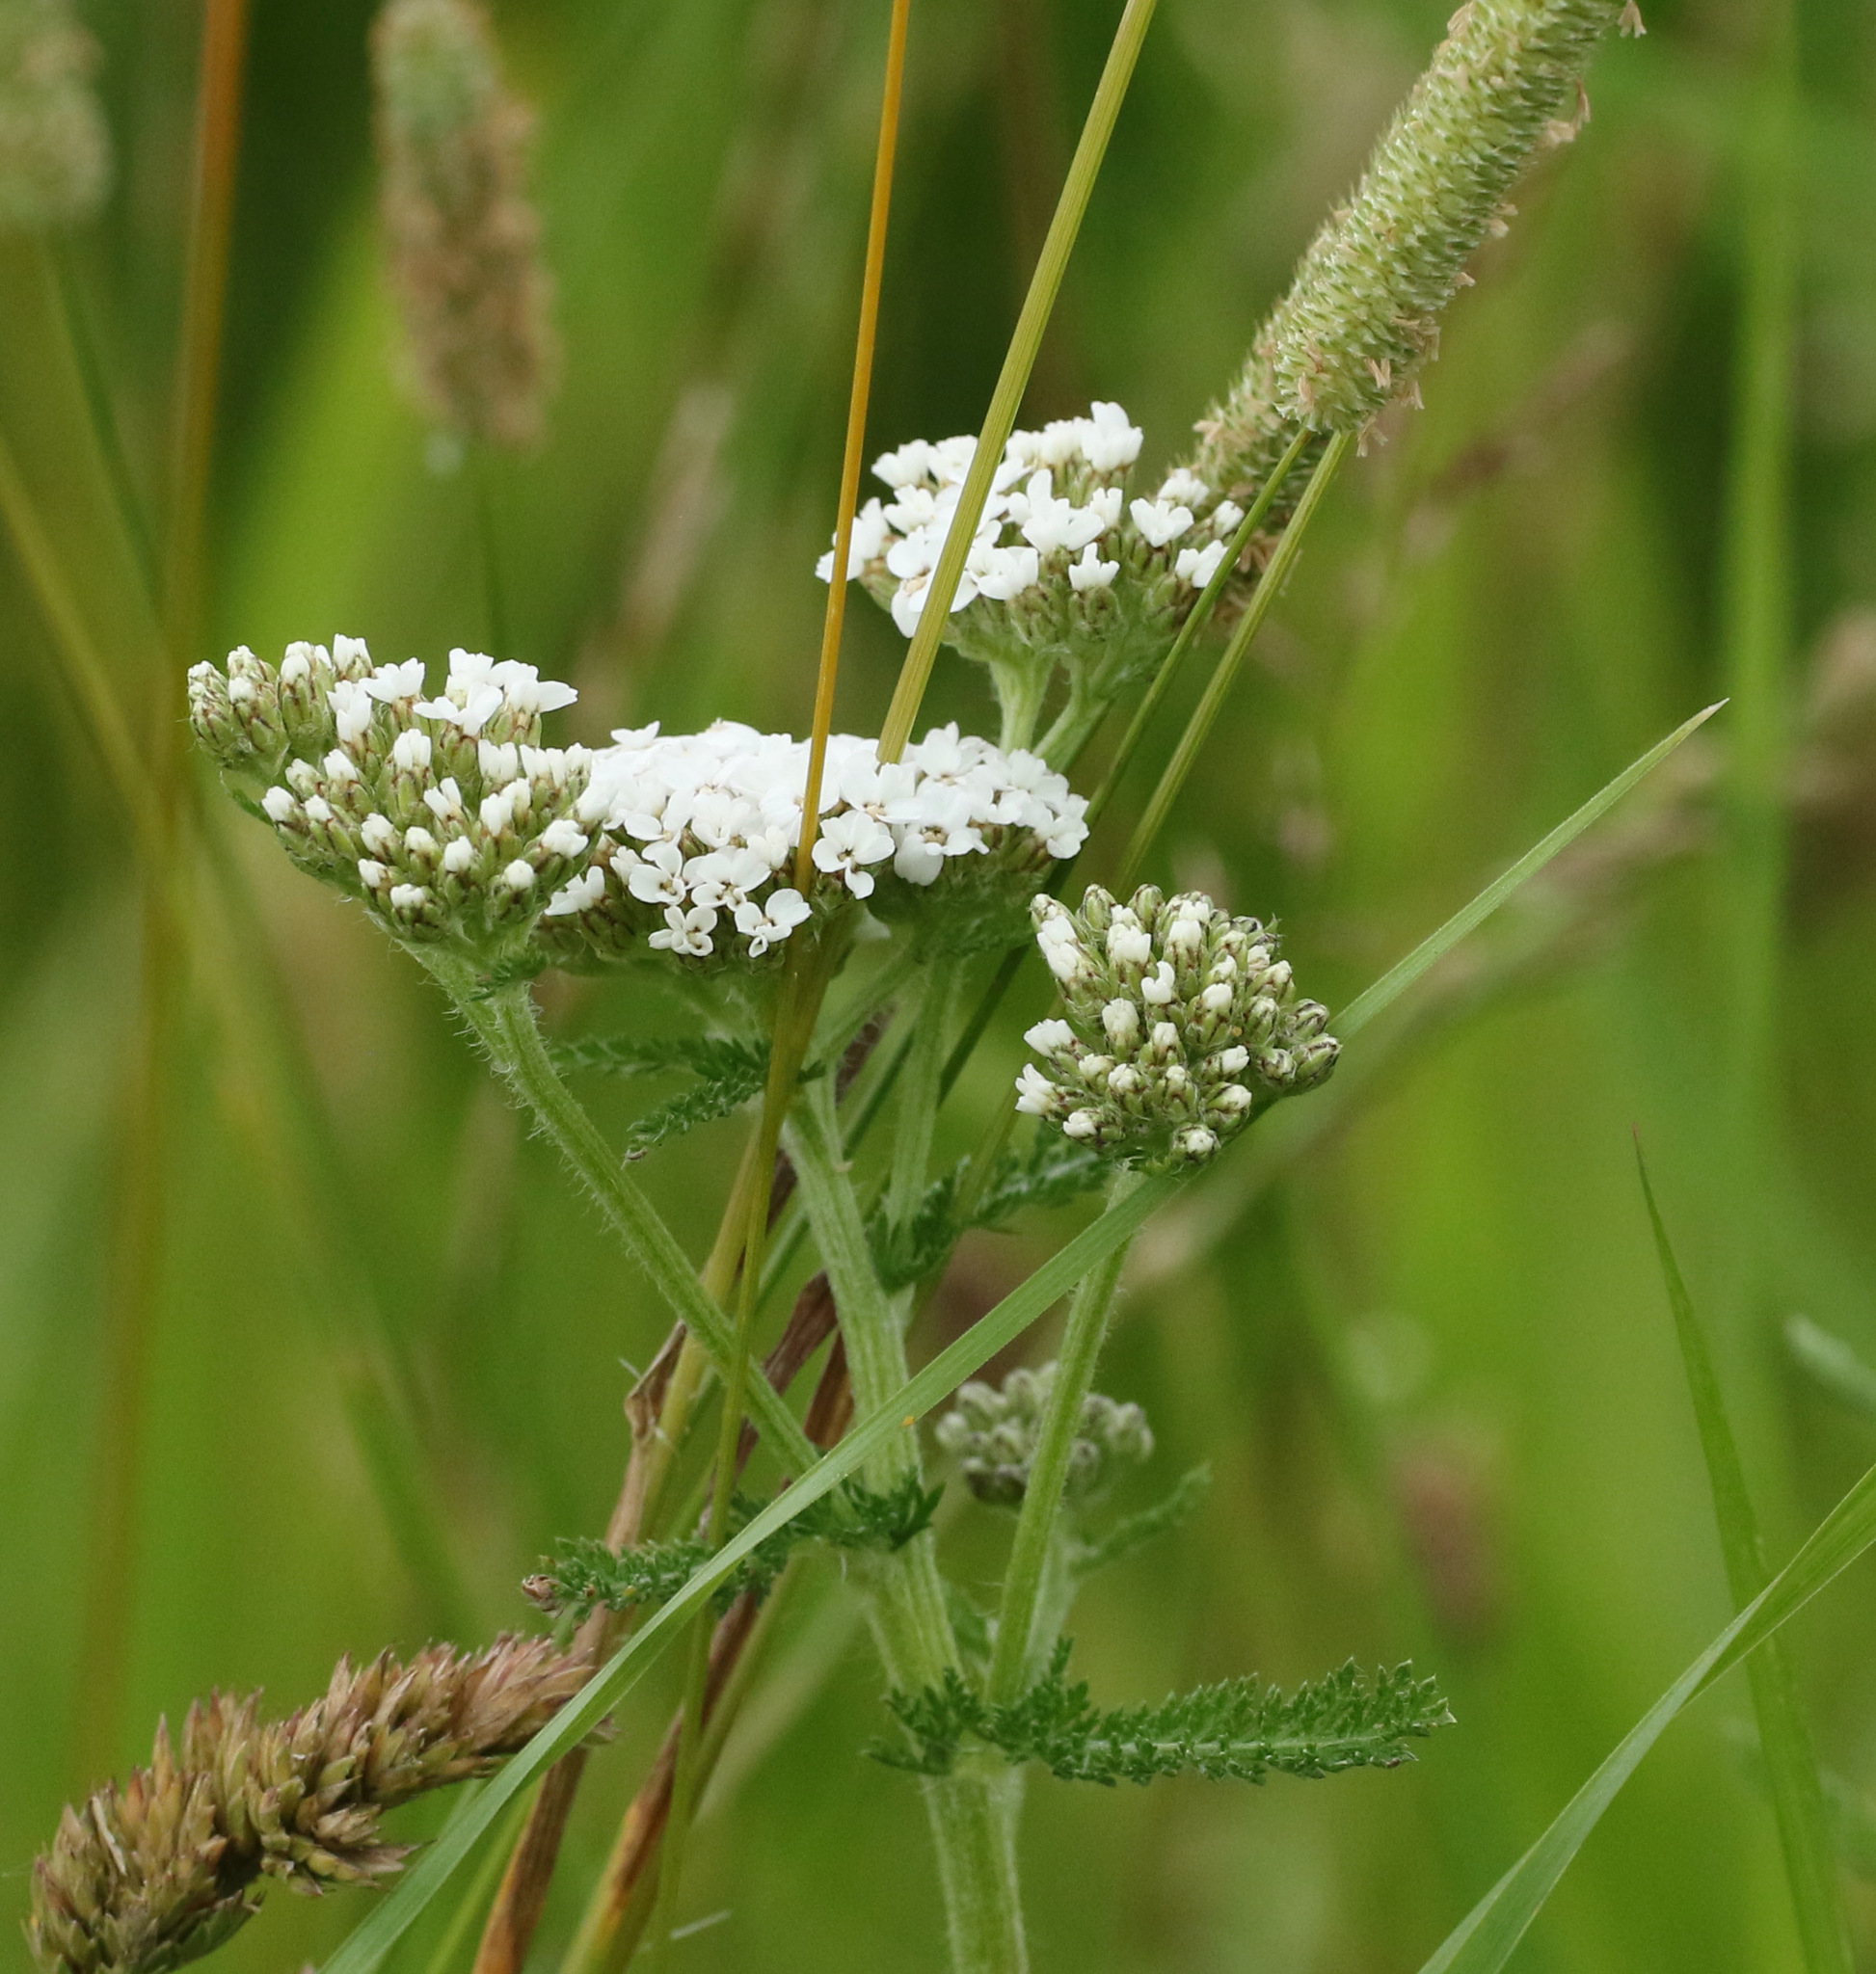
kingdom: Plantae
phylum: Tracheophyta
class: Magnoliopsida
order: Asterales
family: Asteraceae
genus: Achillea
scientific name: Achillea millefolium
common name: Yarrow
